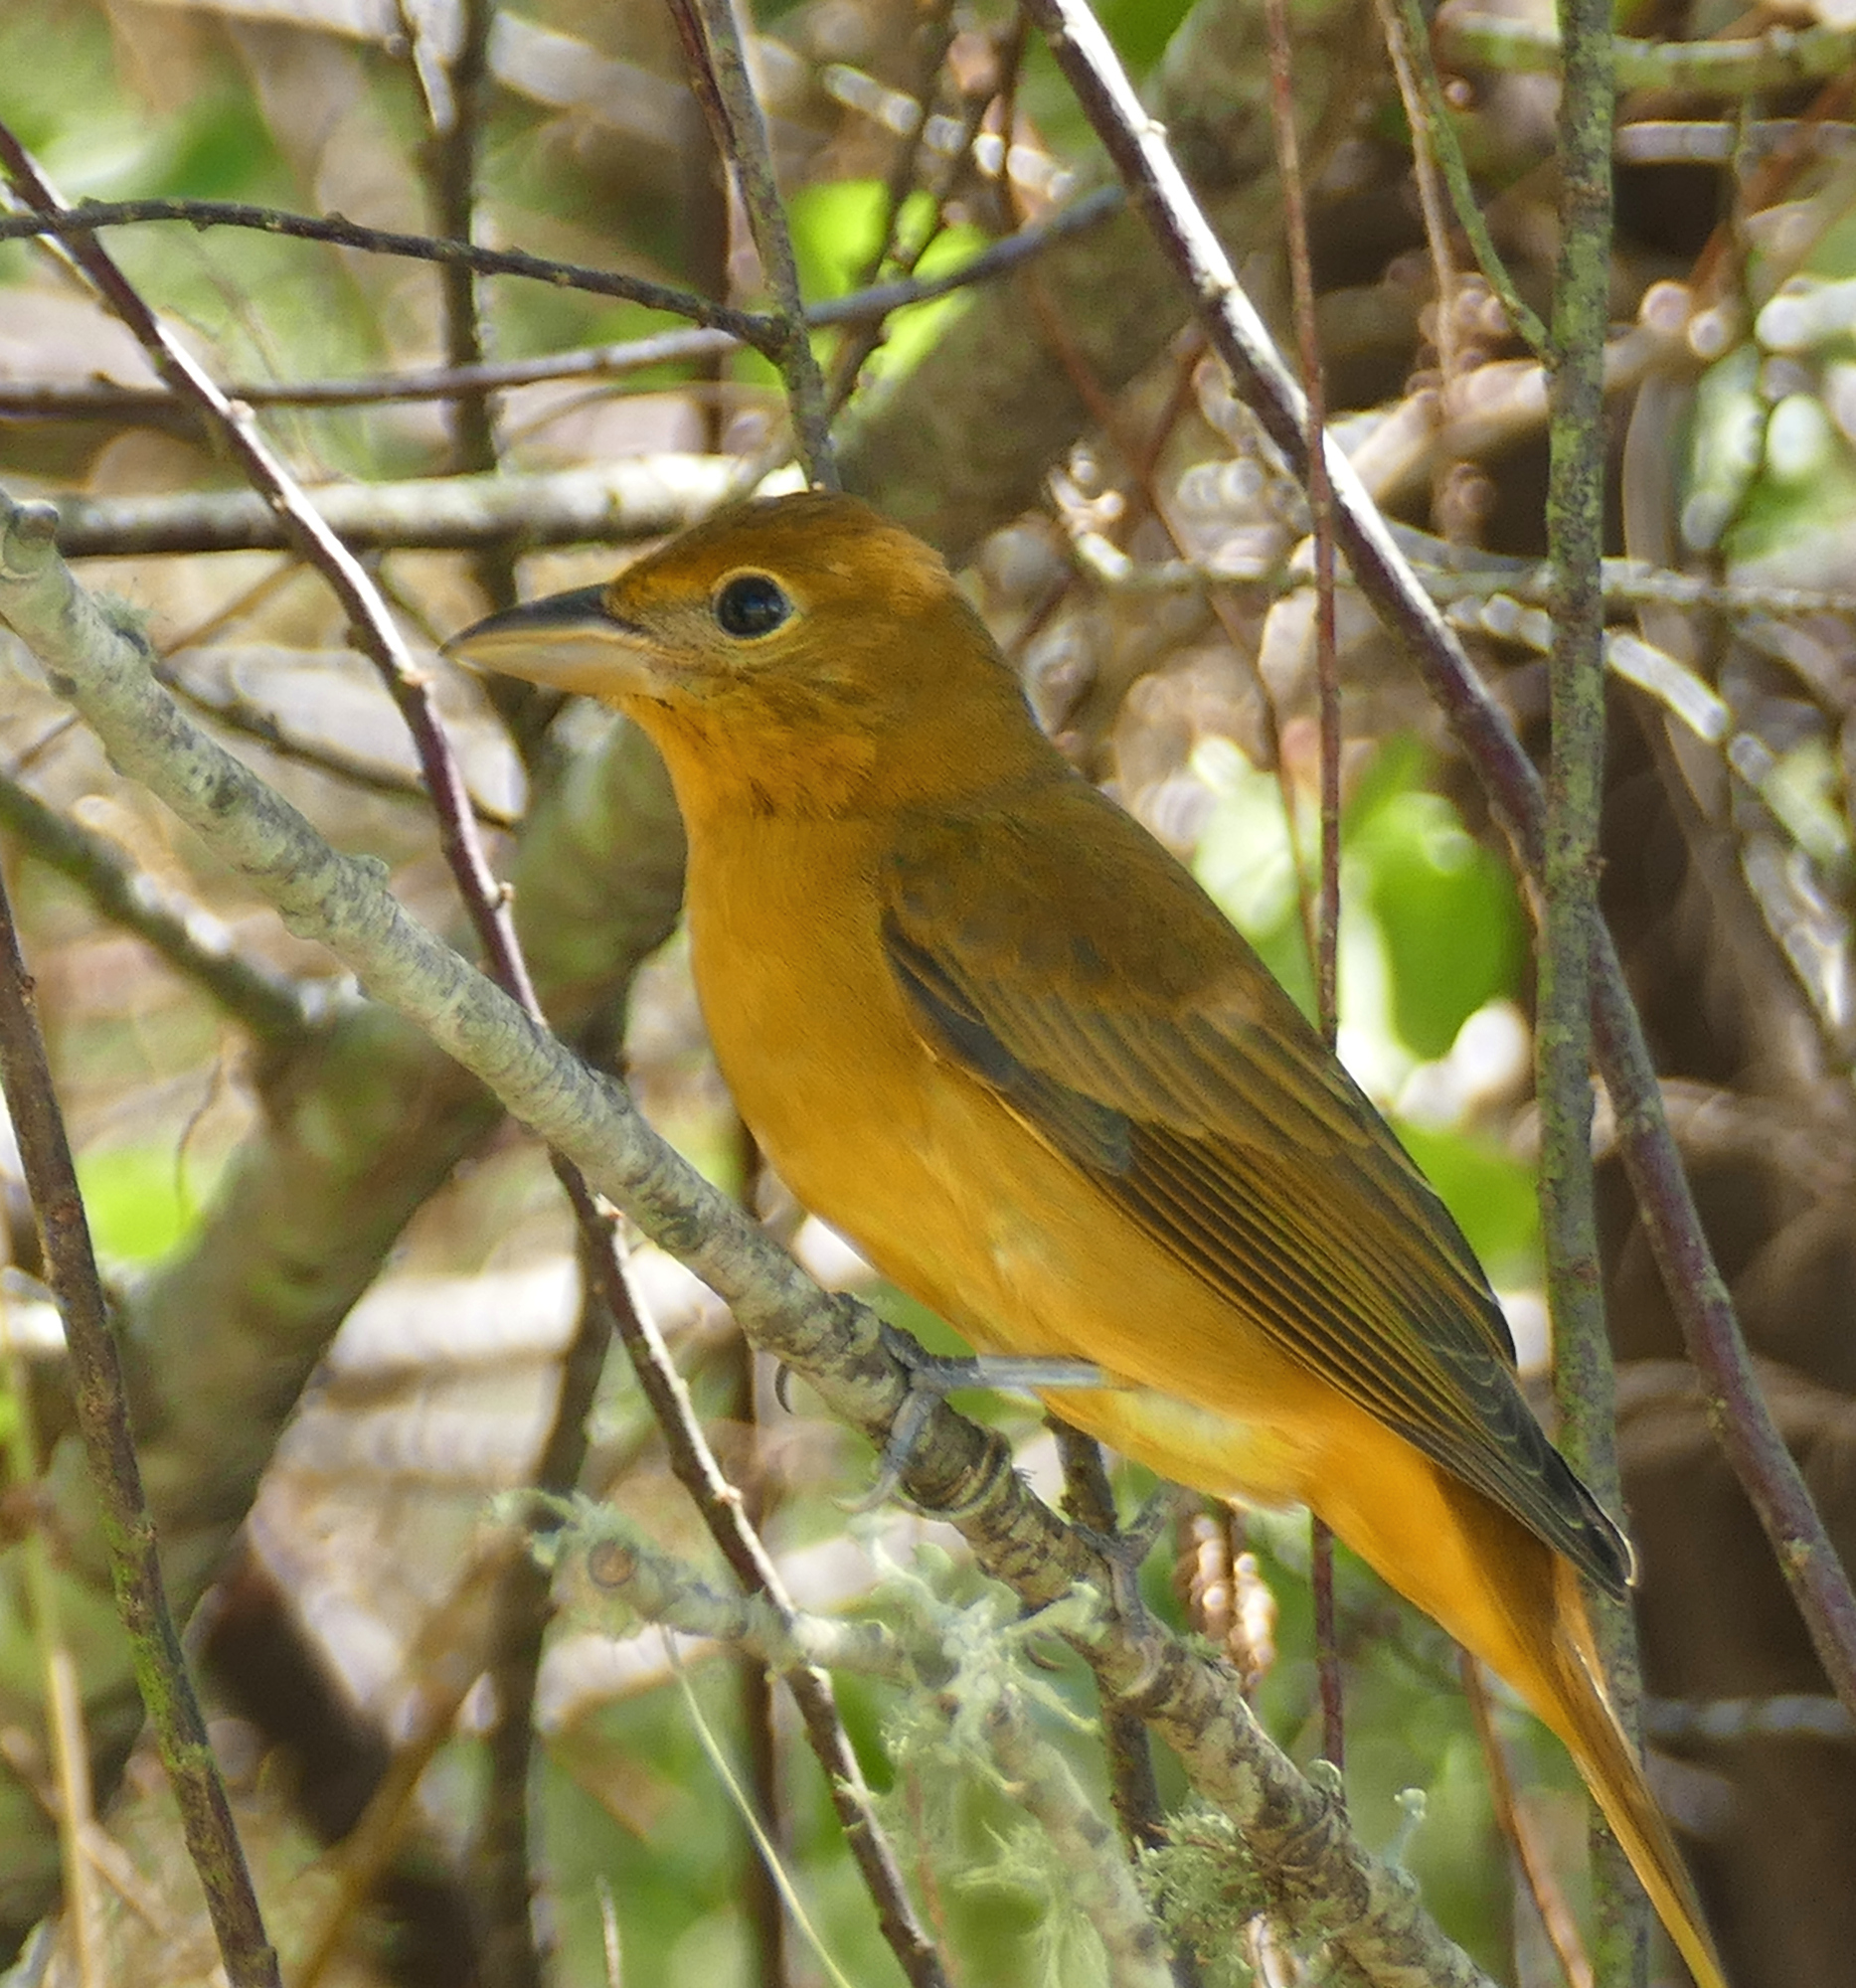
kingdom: Animalia
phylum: Chordata
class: Aves
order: Passeriformes
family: Cardinalidae
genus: Piranga
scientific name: Piranga rubra
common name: Summer tanager
